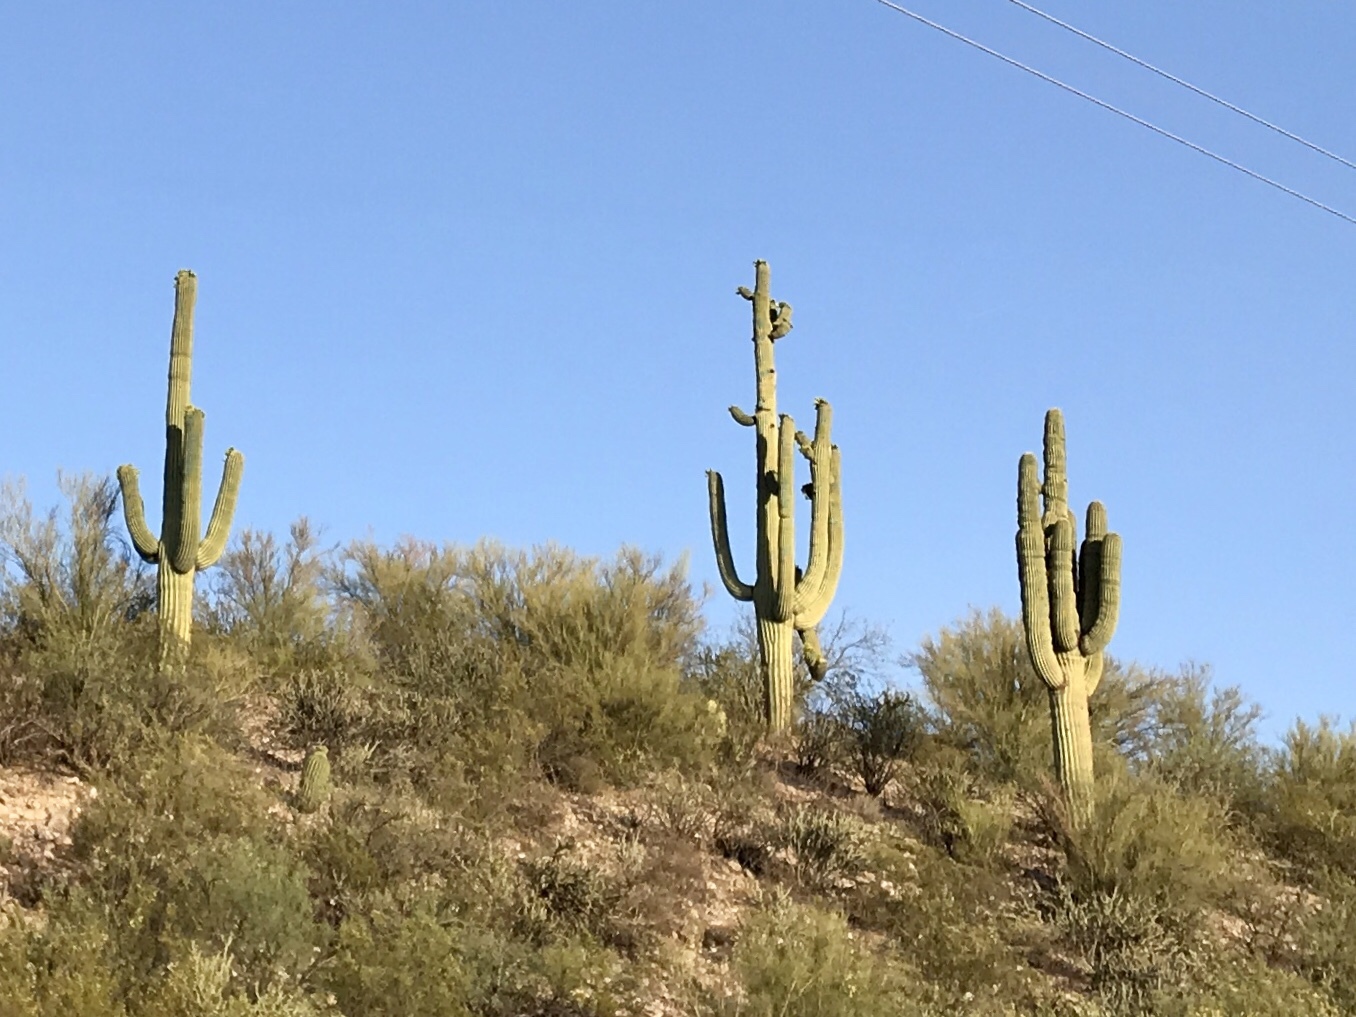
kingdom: Plantae
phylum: Tracheophyta
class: Magnoliopsida
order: Caryophyllales
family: Cactaceae
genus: Carnegiea
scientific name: Carnegiea gigantea
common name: Saguaro
